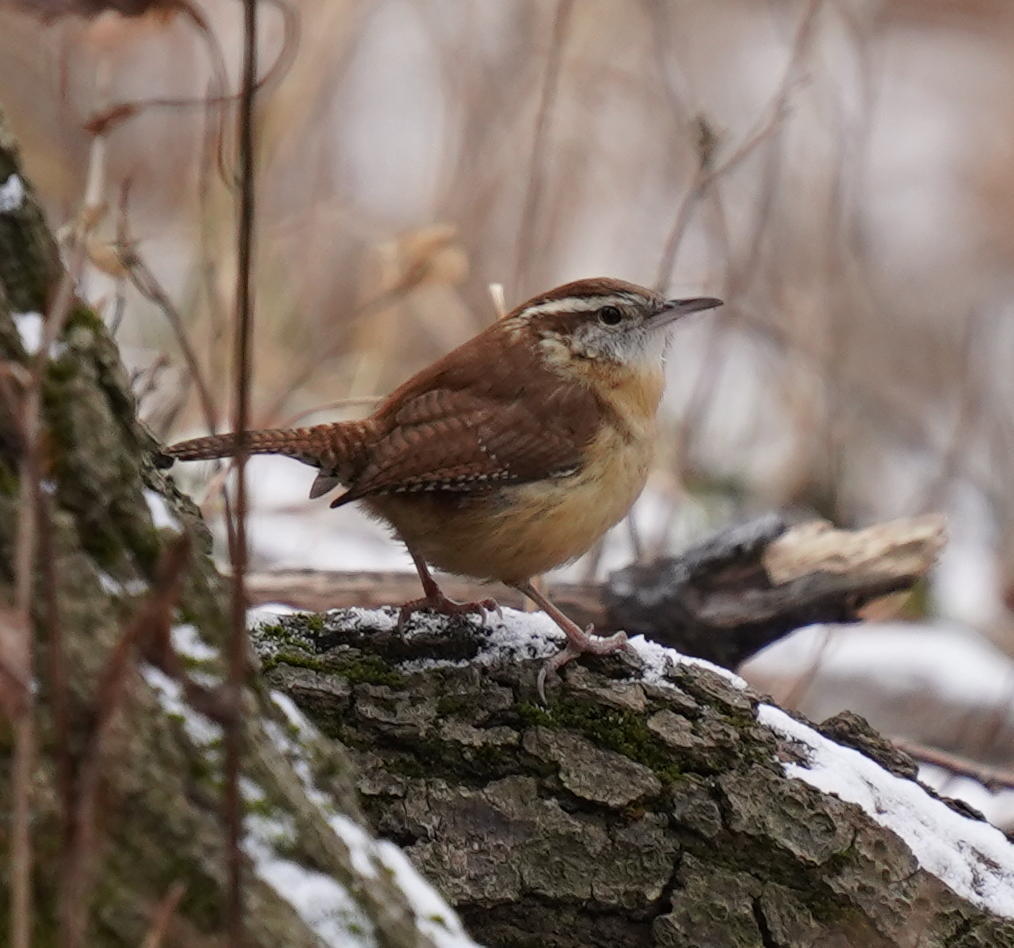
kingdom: Animalia
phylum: Chordata
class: Aves
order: Passeriformes
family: Troglodytidae
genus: Thryothorus
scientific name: Thryothorus ludovicianus
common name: Carolina wren
